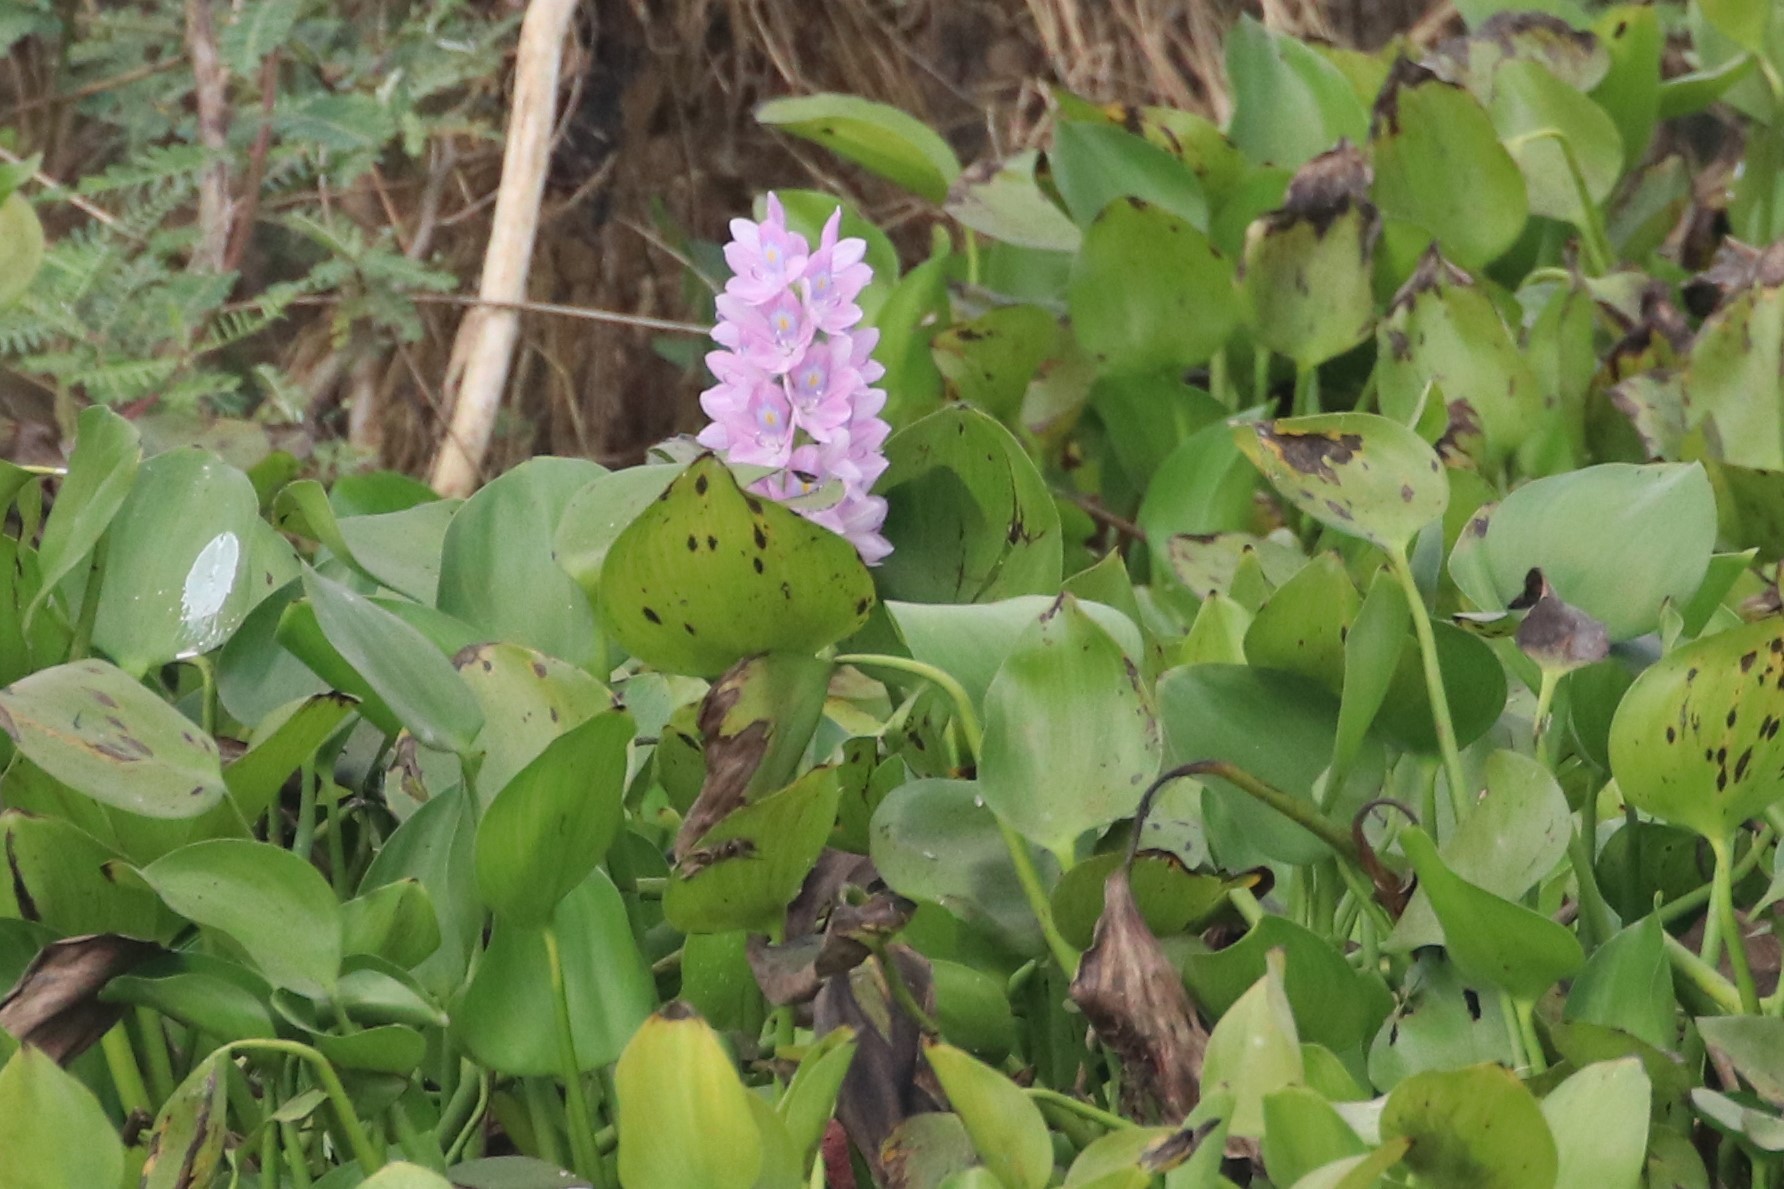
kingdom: Plantae
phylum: Tracheophyta
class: Liliopsida
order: Commelinales
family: Pontederiaceae
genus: Pontederia
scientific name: Pontederia crassipes
